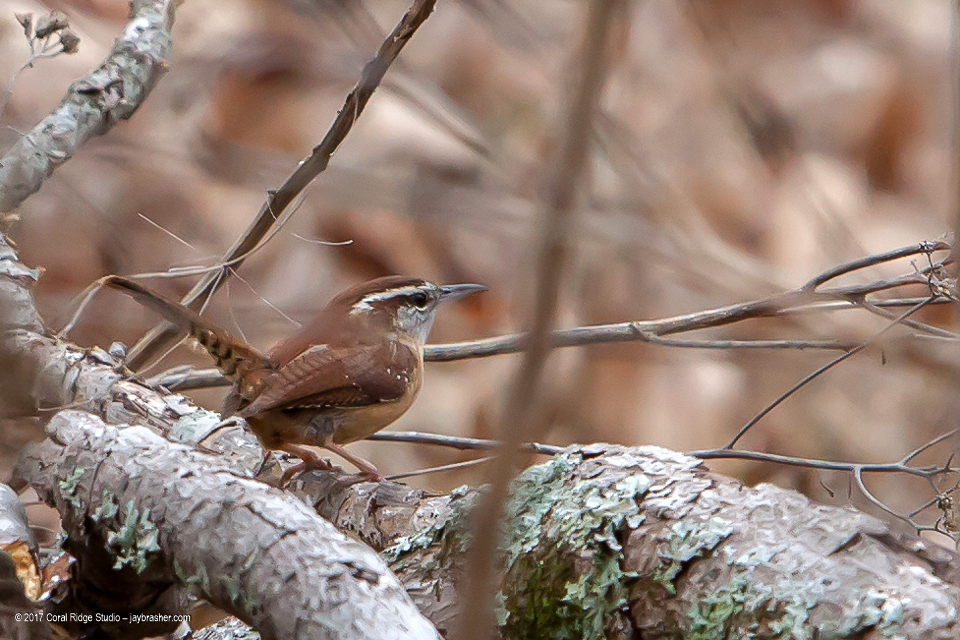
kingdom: Animalia
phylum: Chordata
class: Aves
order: Passeriformes
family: Troglodytidae
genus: Thryothorus
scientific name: Thryothorus ludovicianus
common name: Carolina wren
